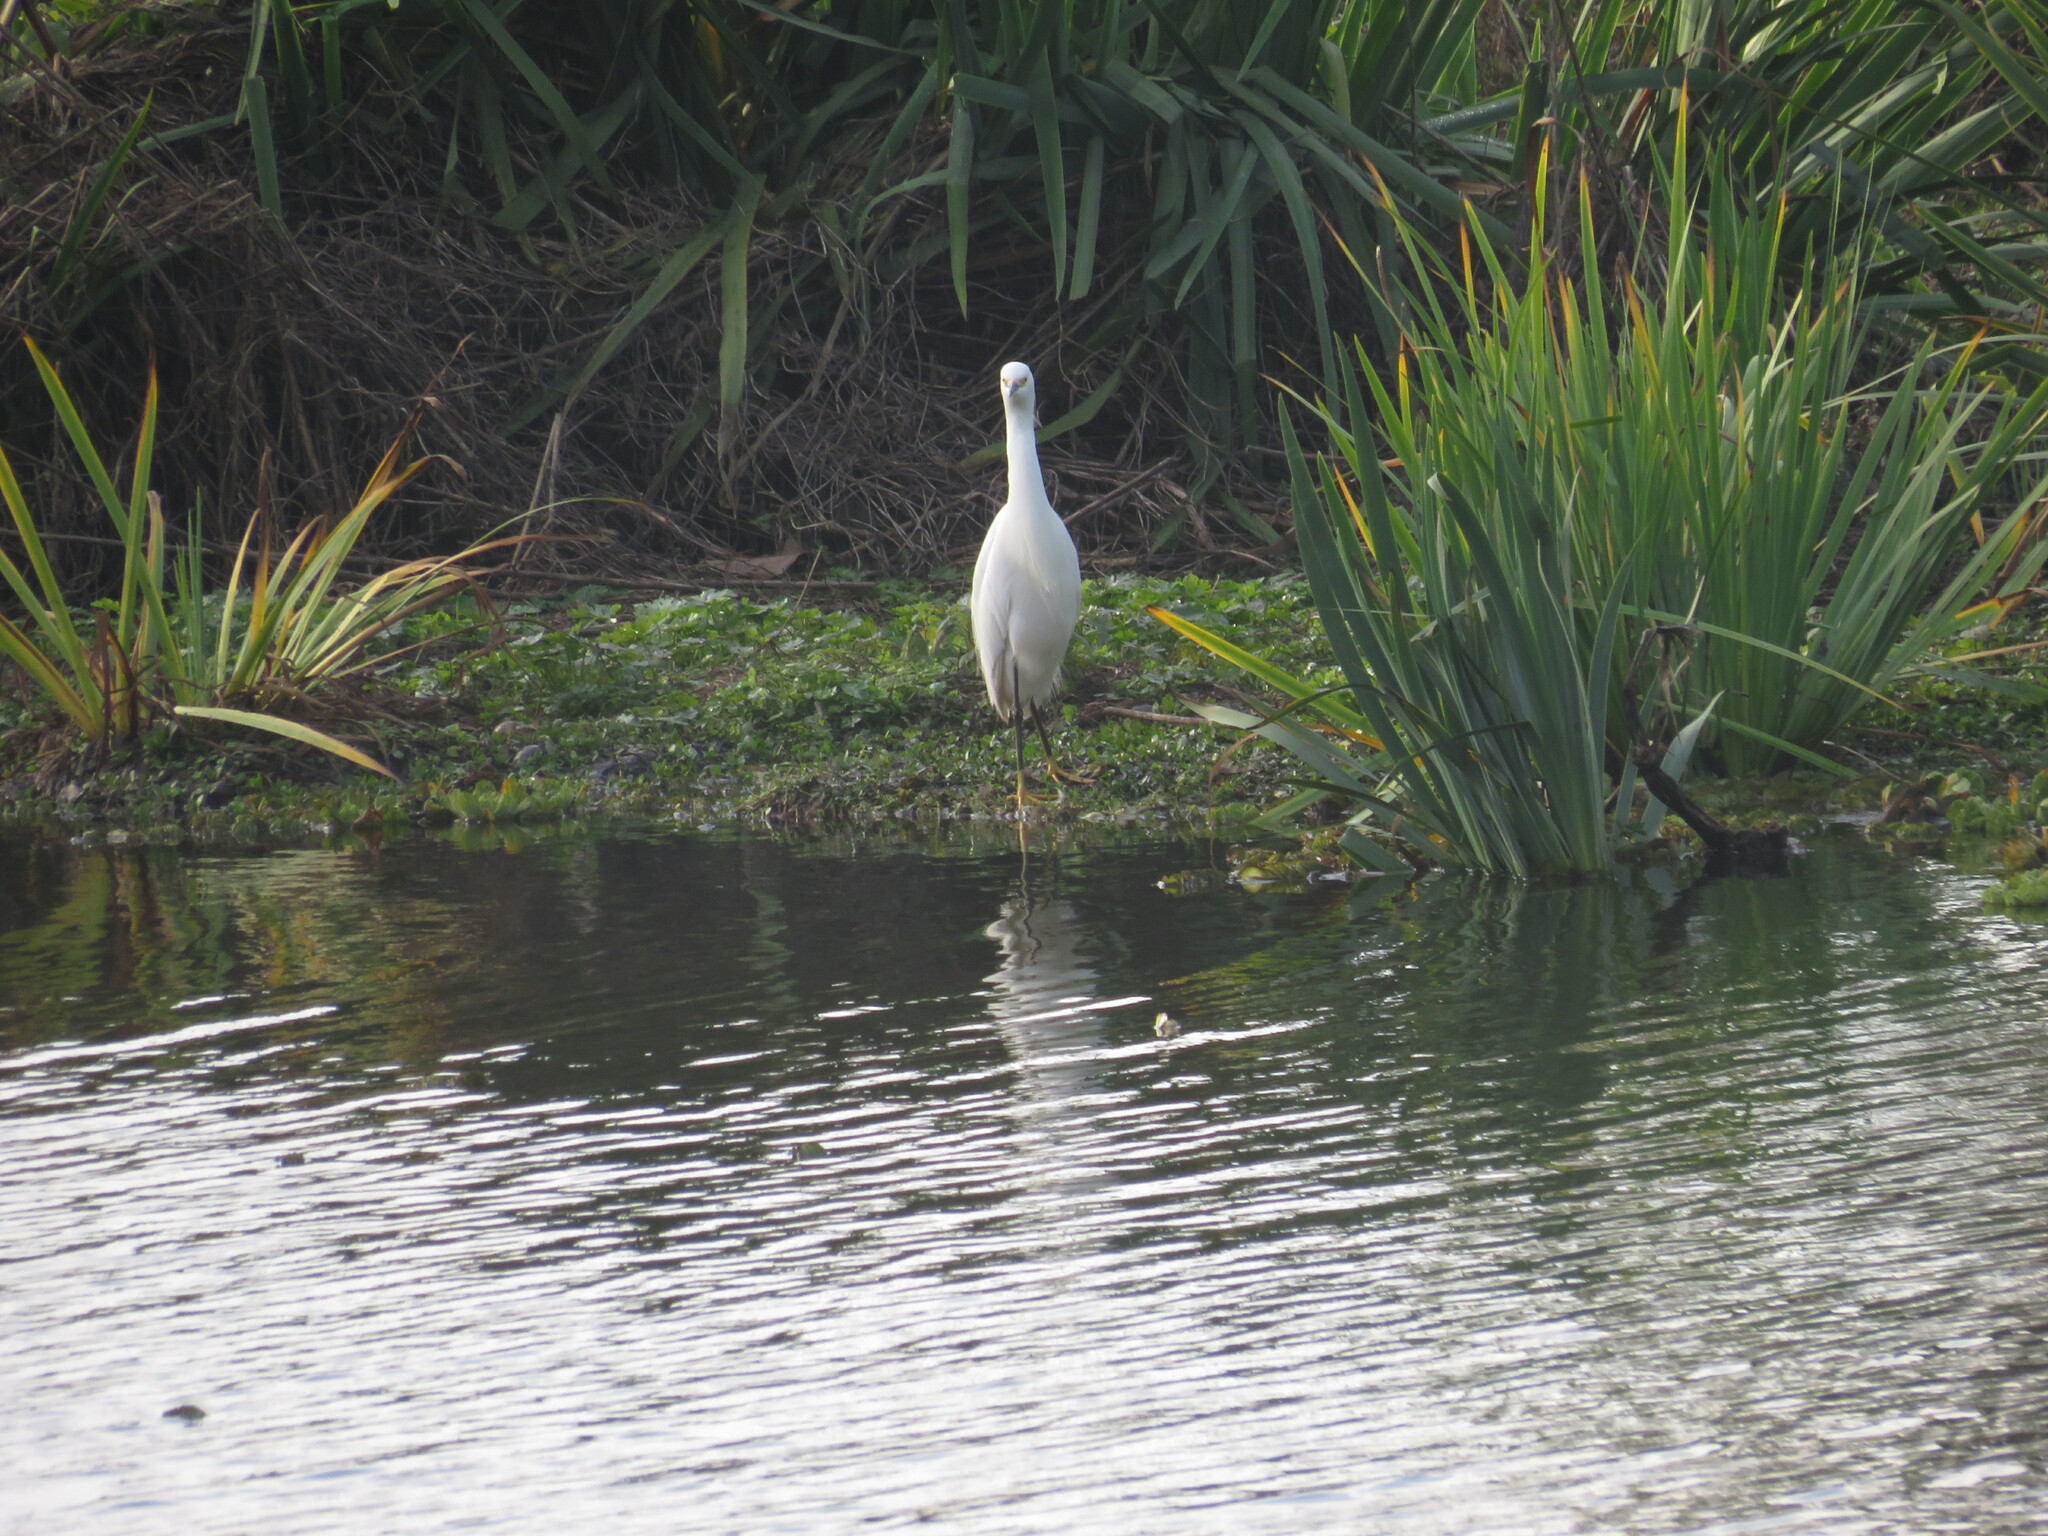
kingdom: Animalia
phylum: Chordata
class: Aves
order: Pelecaniformes
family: Ardeidae
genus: Egretta
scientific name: Egretta thula
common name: Snowy egret
